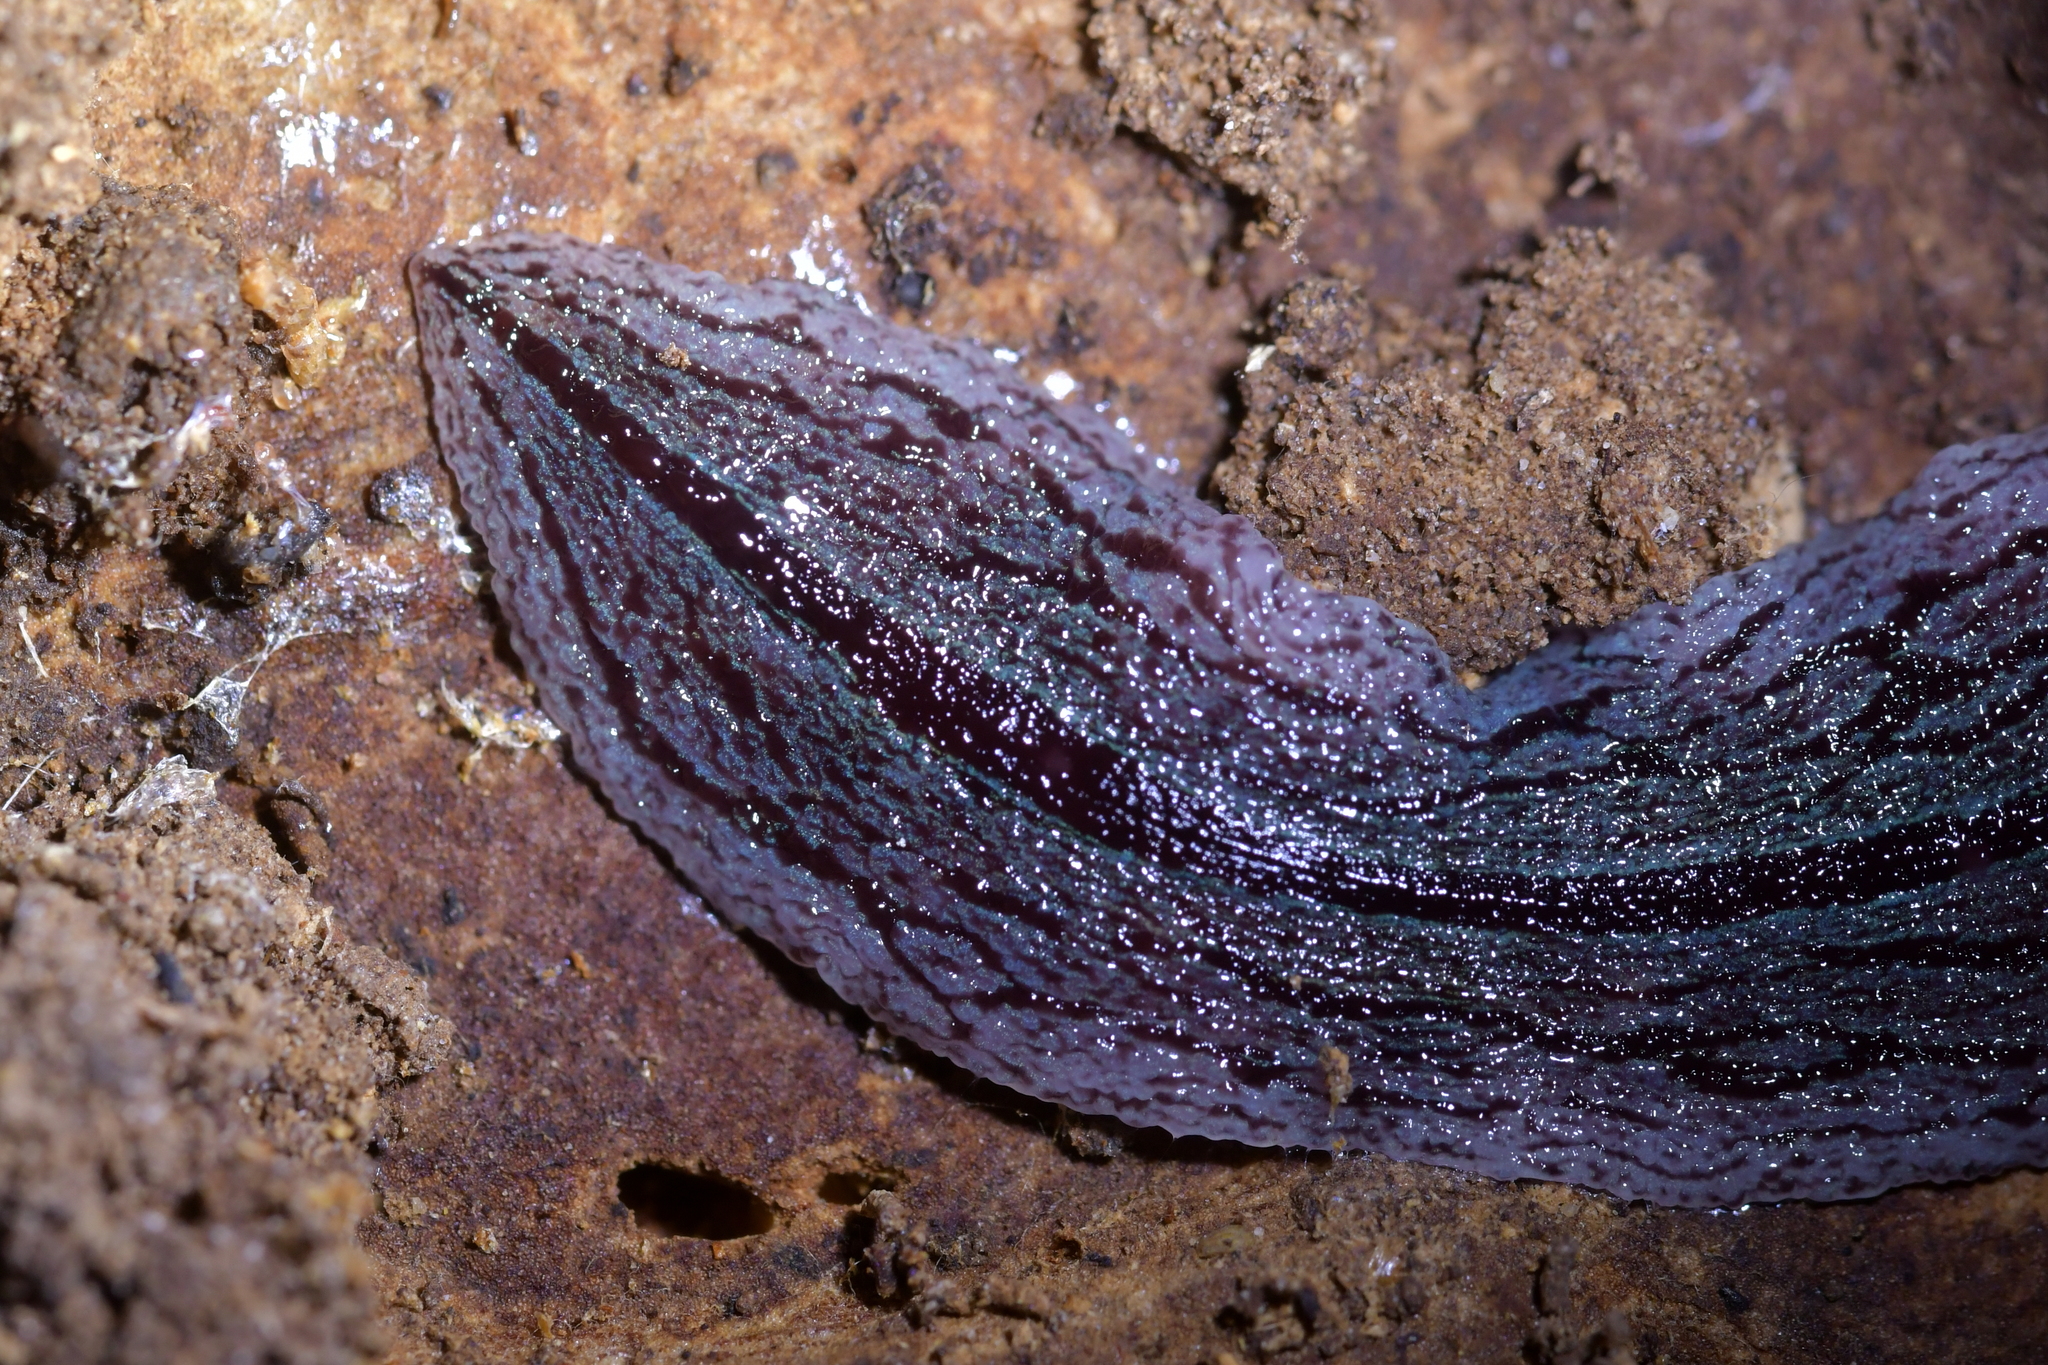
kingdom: Animalia
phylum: Platyhelminthes
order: Tricladida
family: Geoplanidae
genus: Artioposthia
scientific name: Artioposthia exulans
